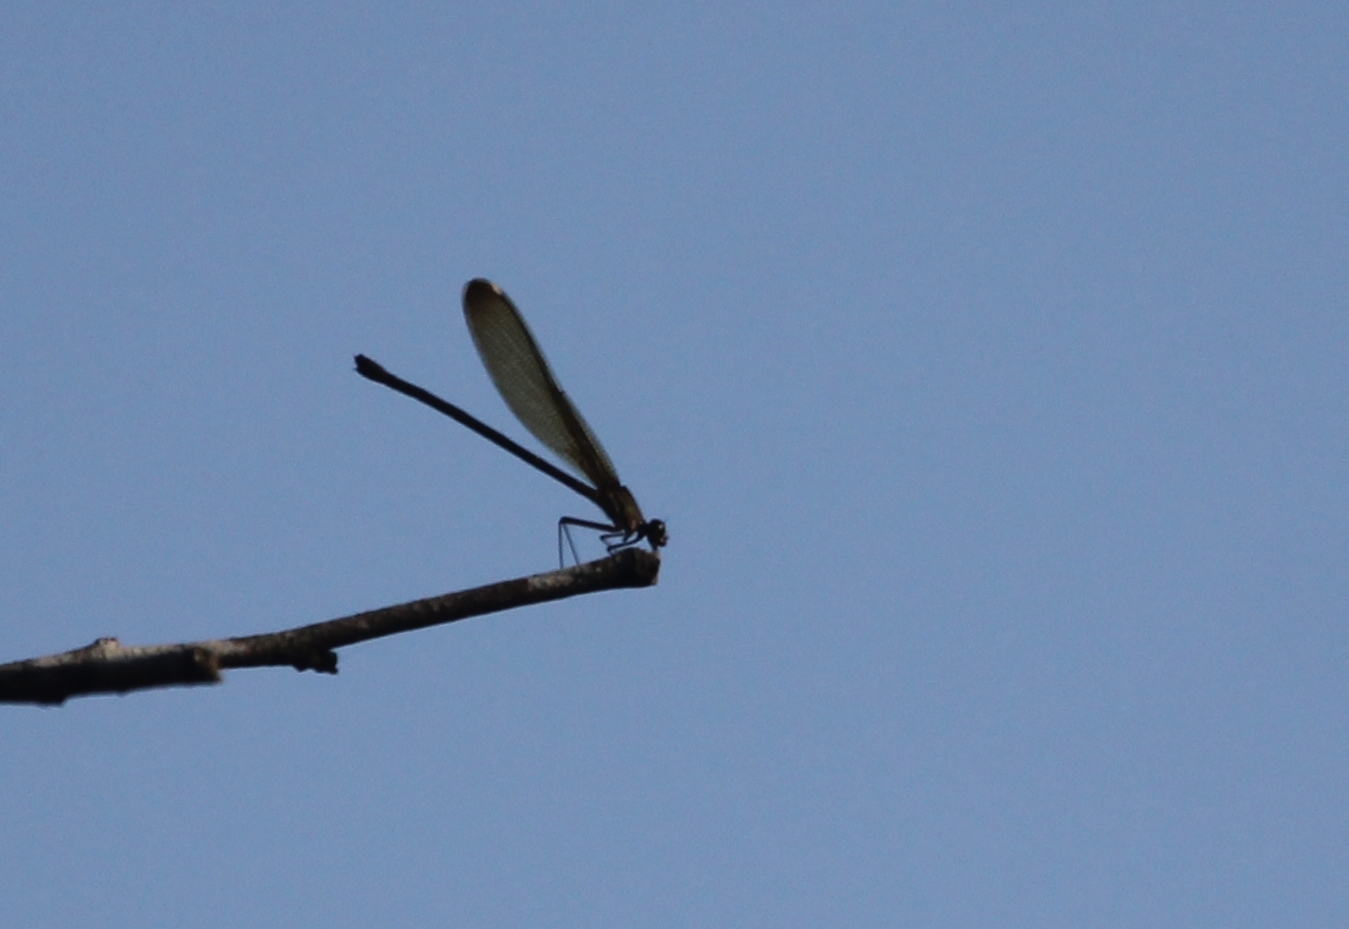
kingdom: Animalia
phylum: Arthropoda
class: Insecta
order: Odonata
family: Calopterygidae
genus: Hetaerina
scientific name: Hetaerina titia
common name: Smoky rubyspot
